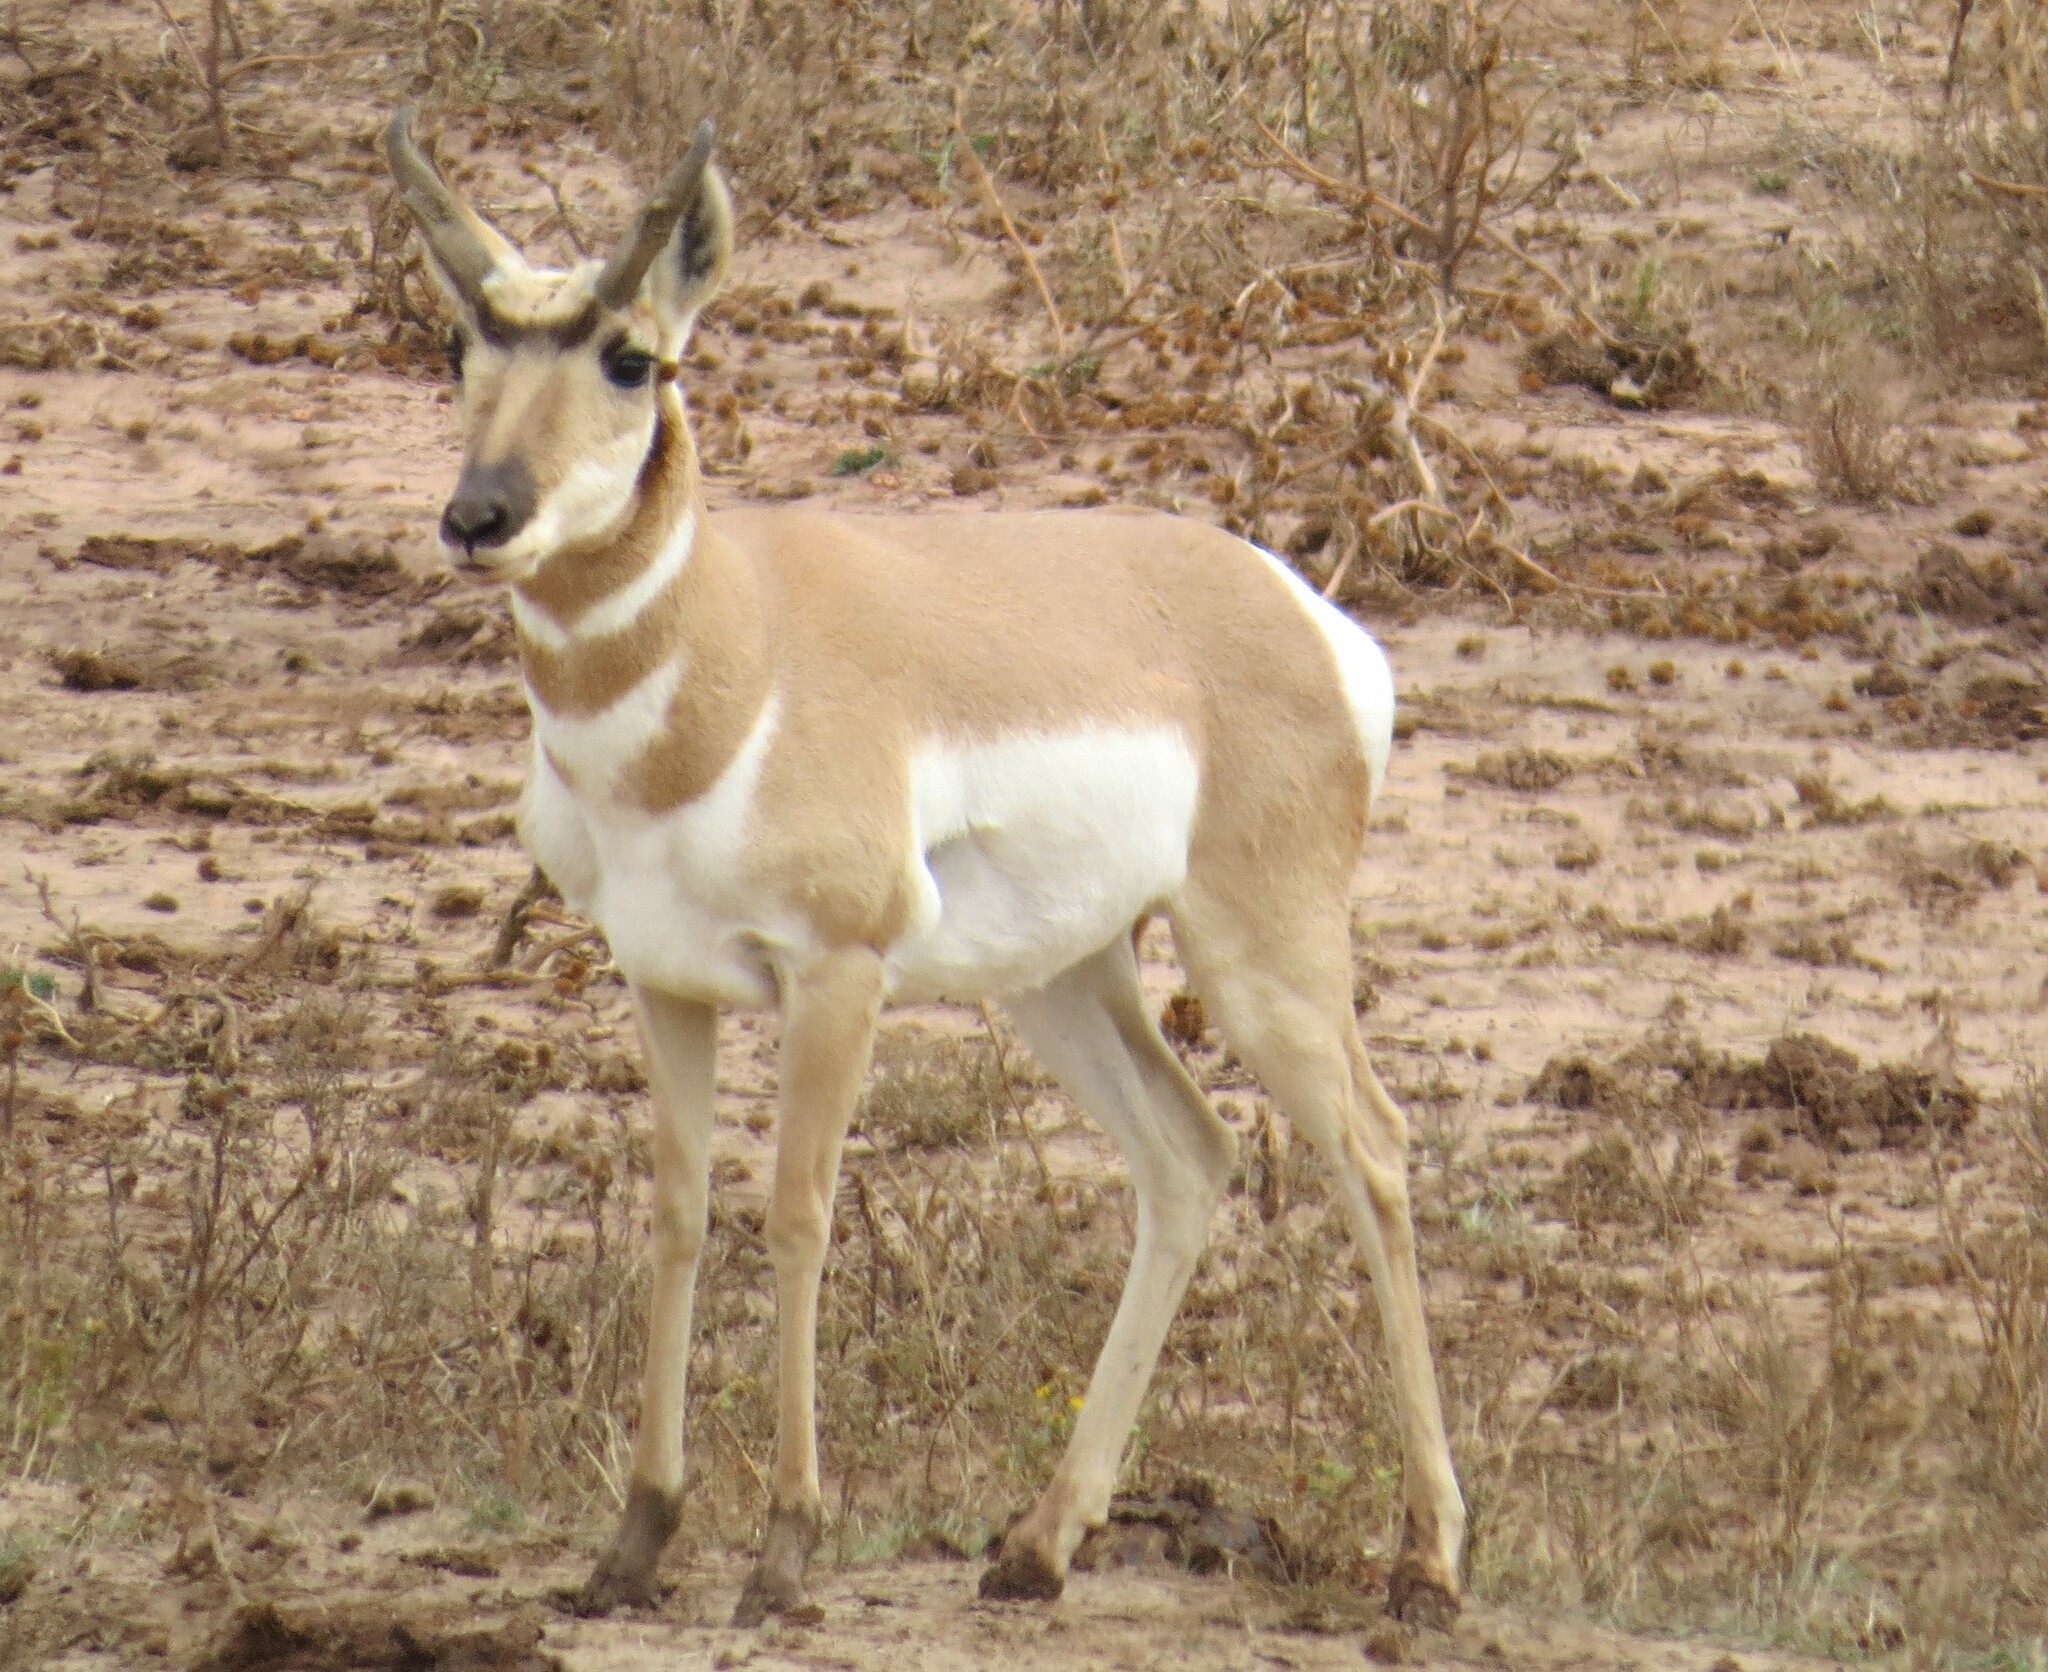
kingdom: Animalia
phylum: Chordata
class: Mammalia
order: Artiodactyla
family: Antilocapridae
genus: Antilocapra
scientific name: Antilocapra americana
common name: Pronghorn
